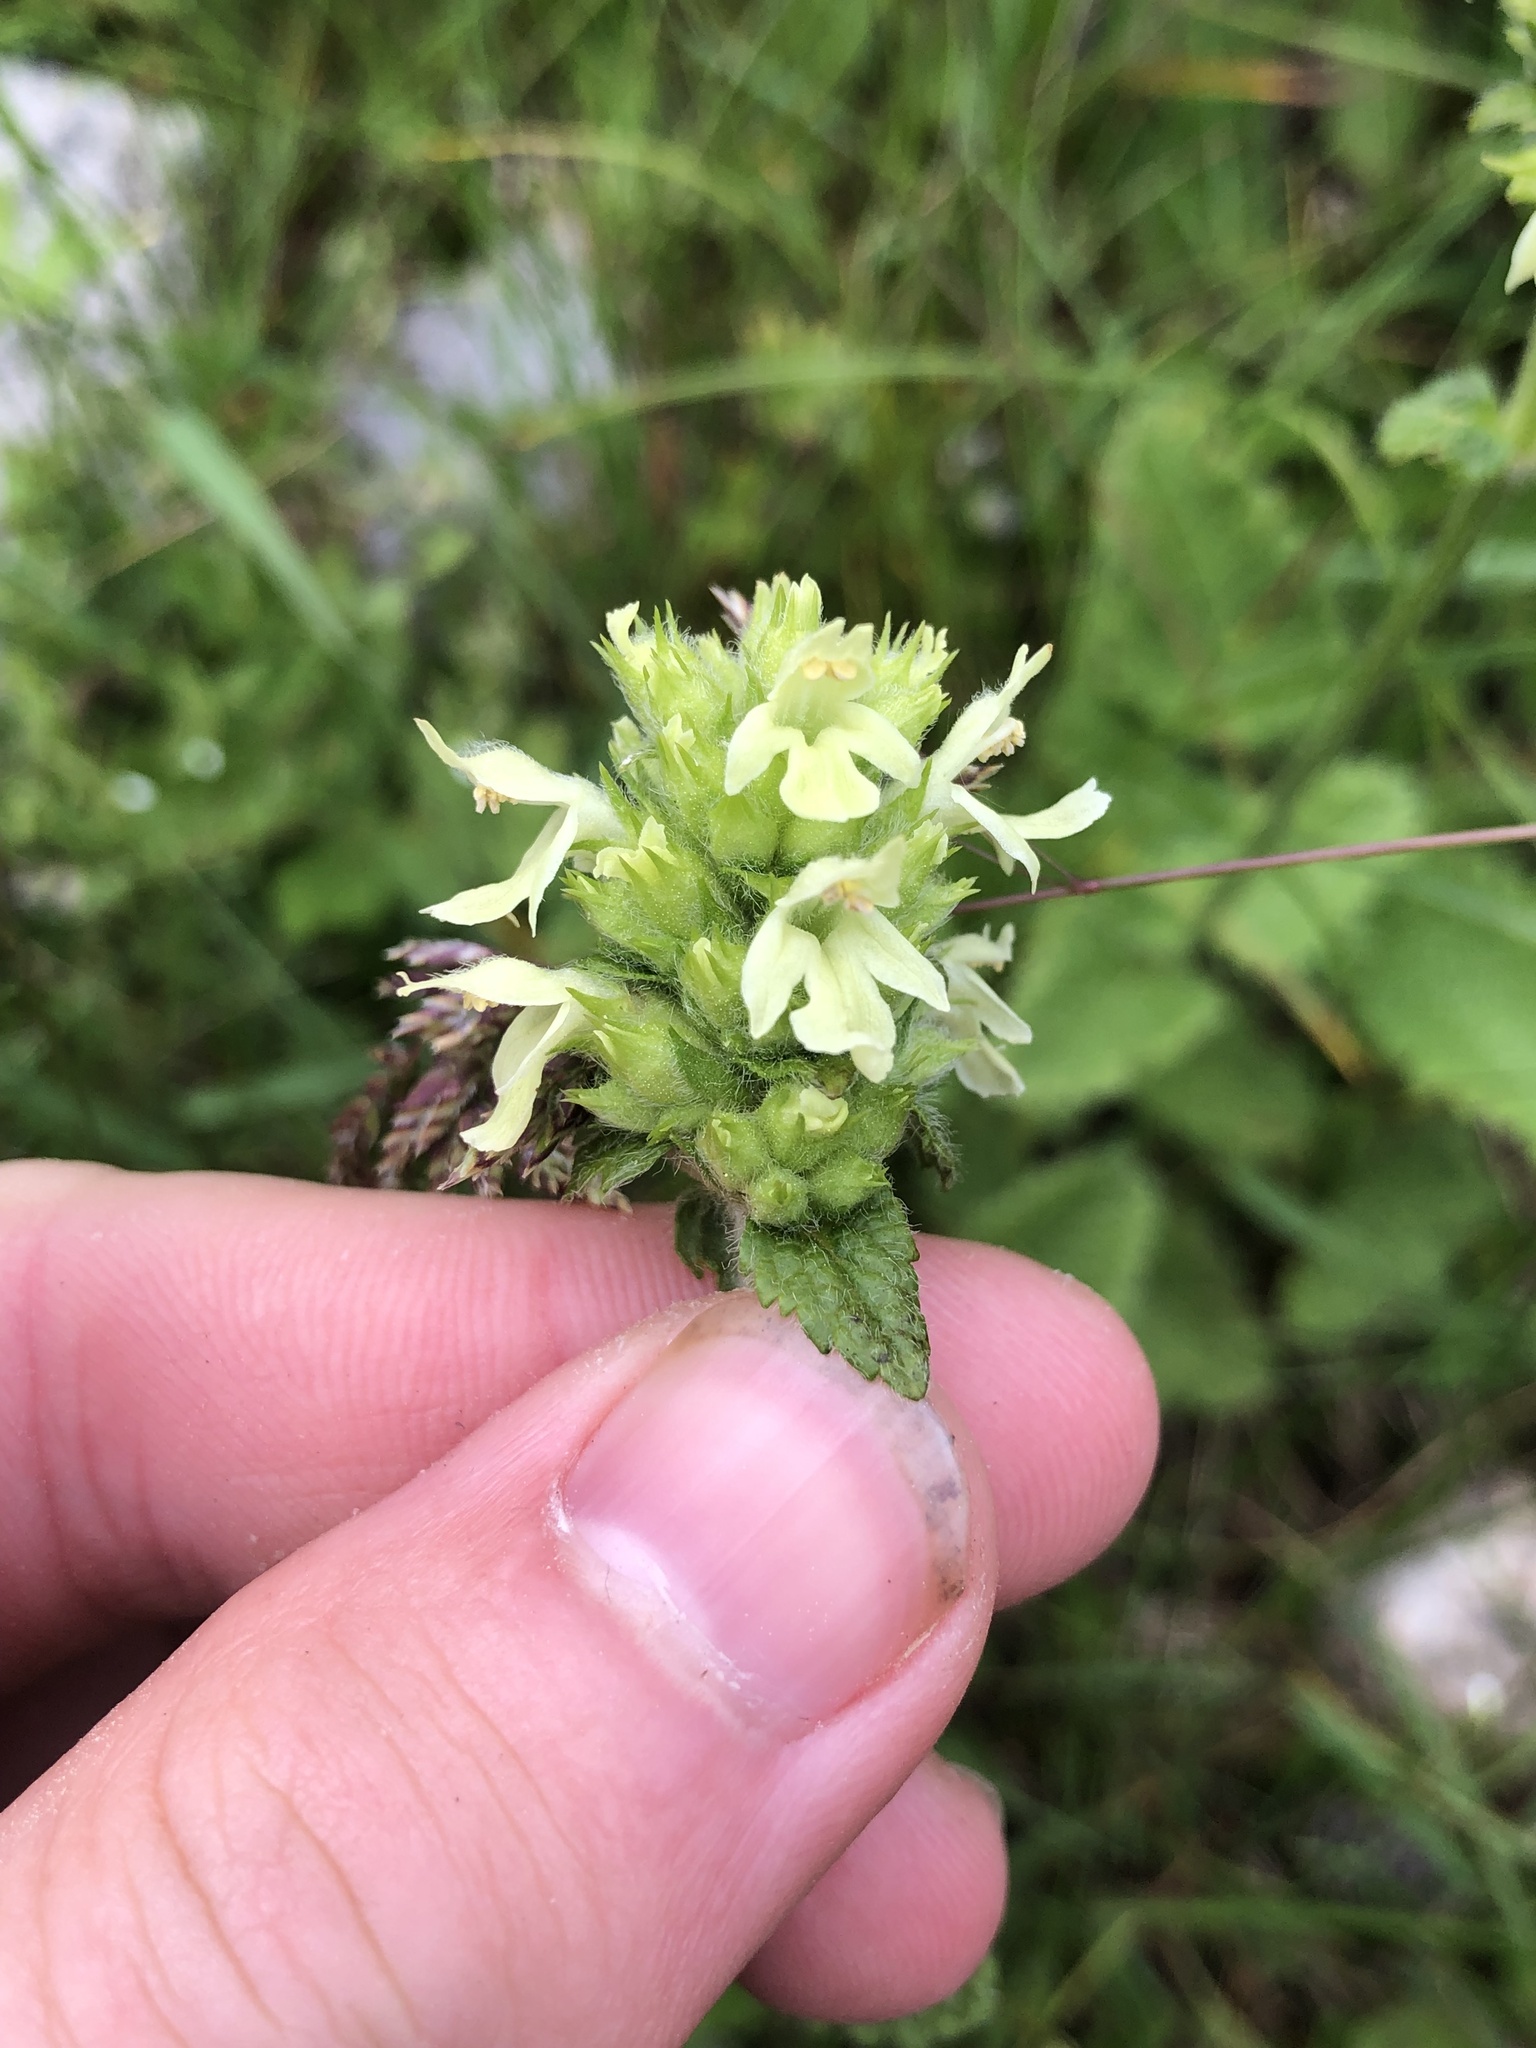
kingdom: Plantae
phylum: Tracheophyta
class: Magnoliopsida
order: Lamiales
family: Lamiaceae
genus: Betonica
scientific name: Betonica alopecuros
